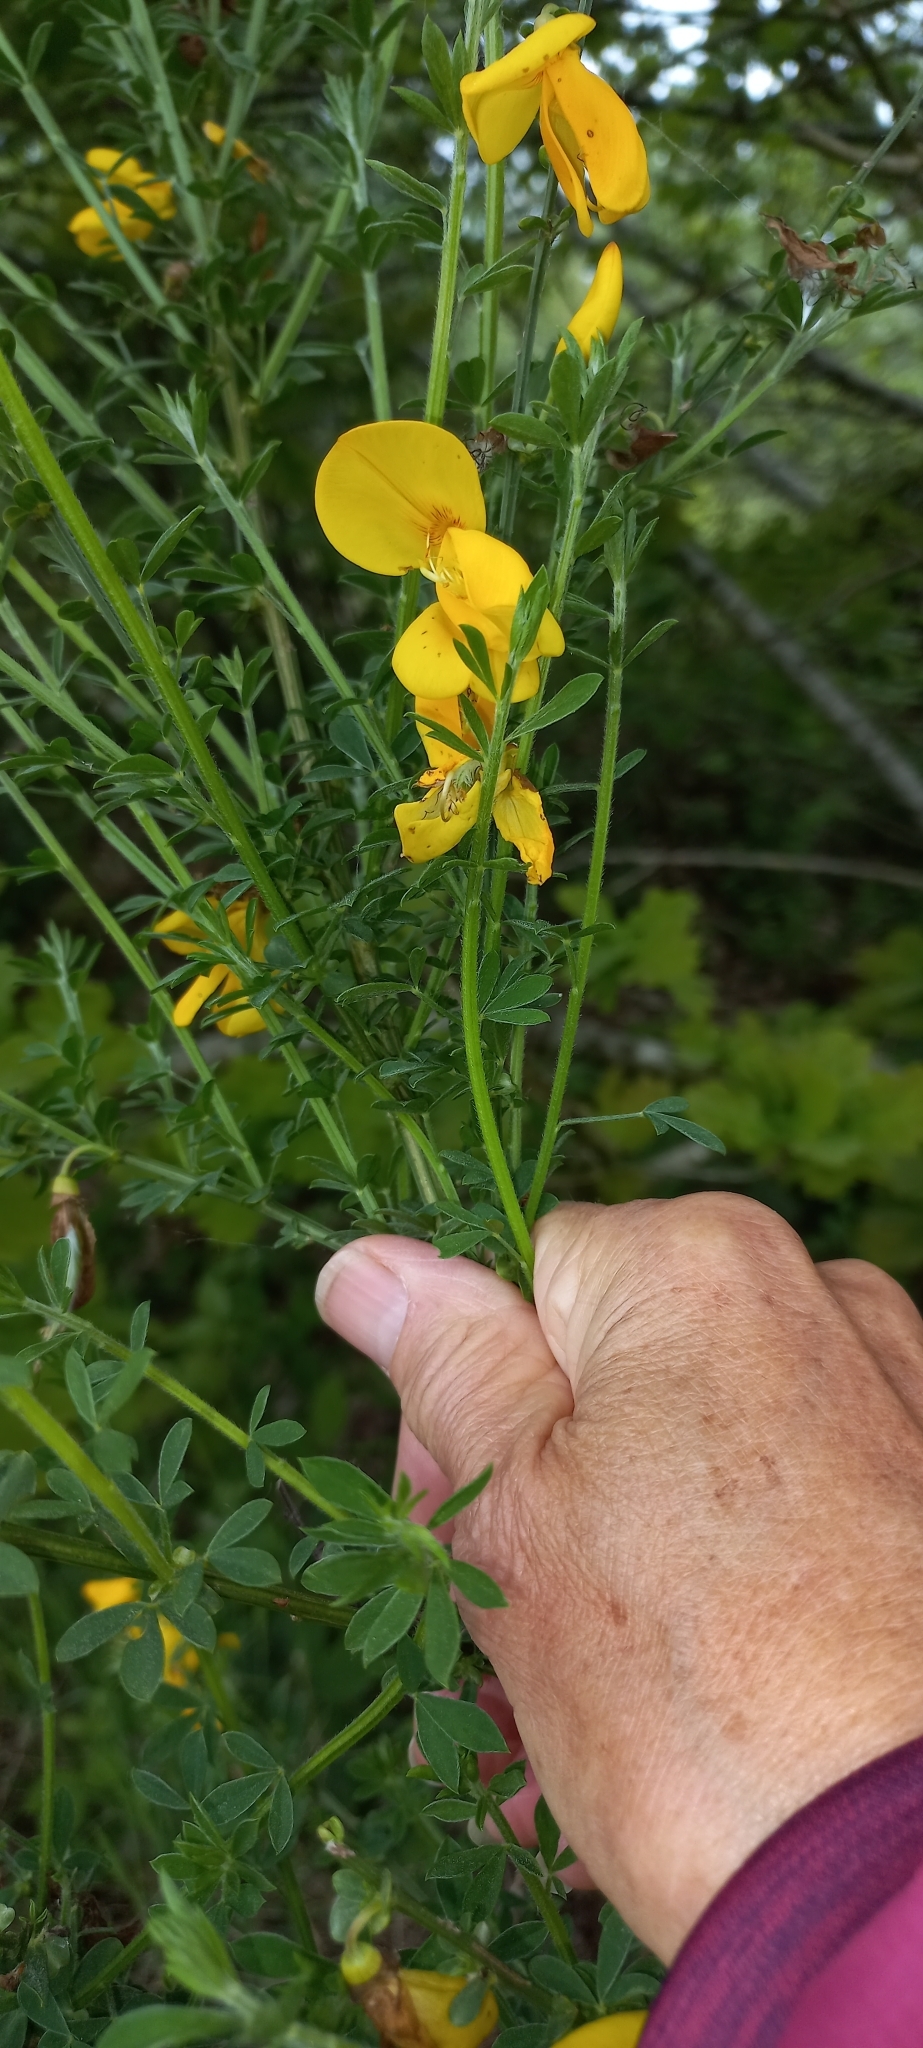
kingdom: Plantae
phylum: Tracheophyta
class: Magnoliopsida
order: Fabales
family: Fabaceae
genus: Cytisus
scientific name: Cytisus scoparius
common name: Scotch broom
